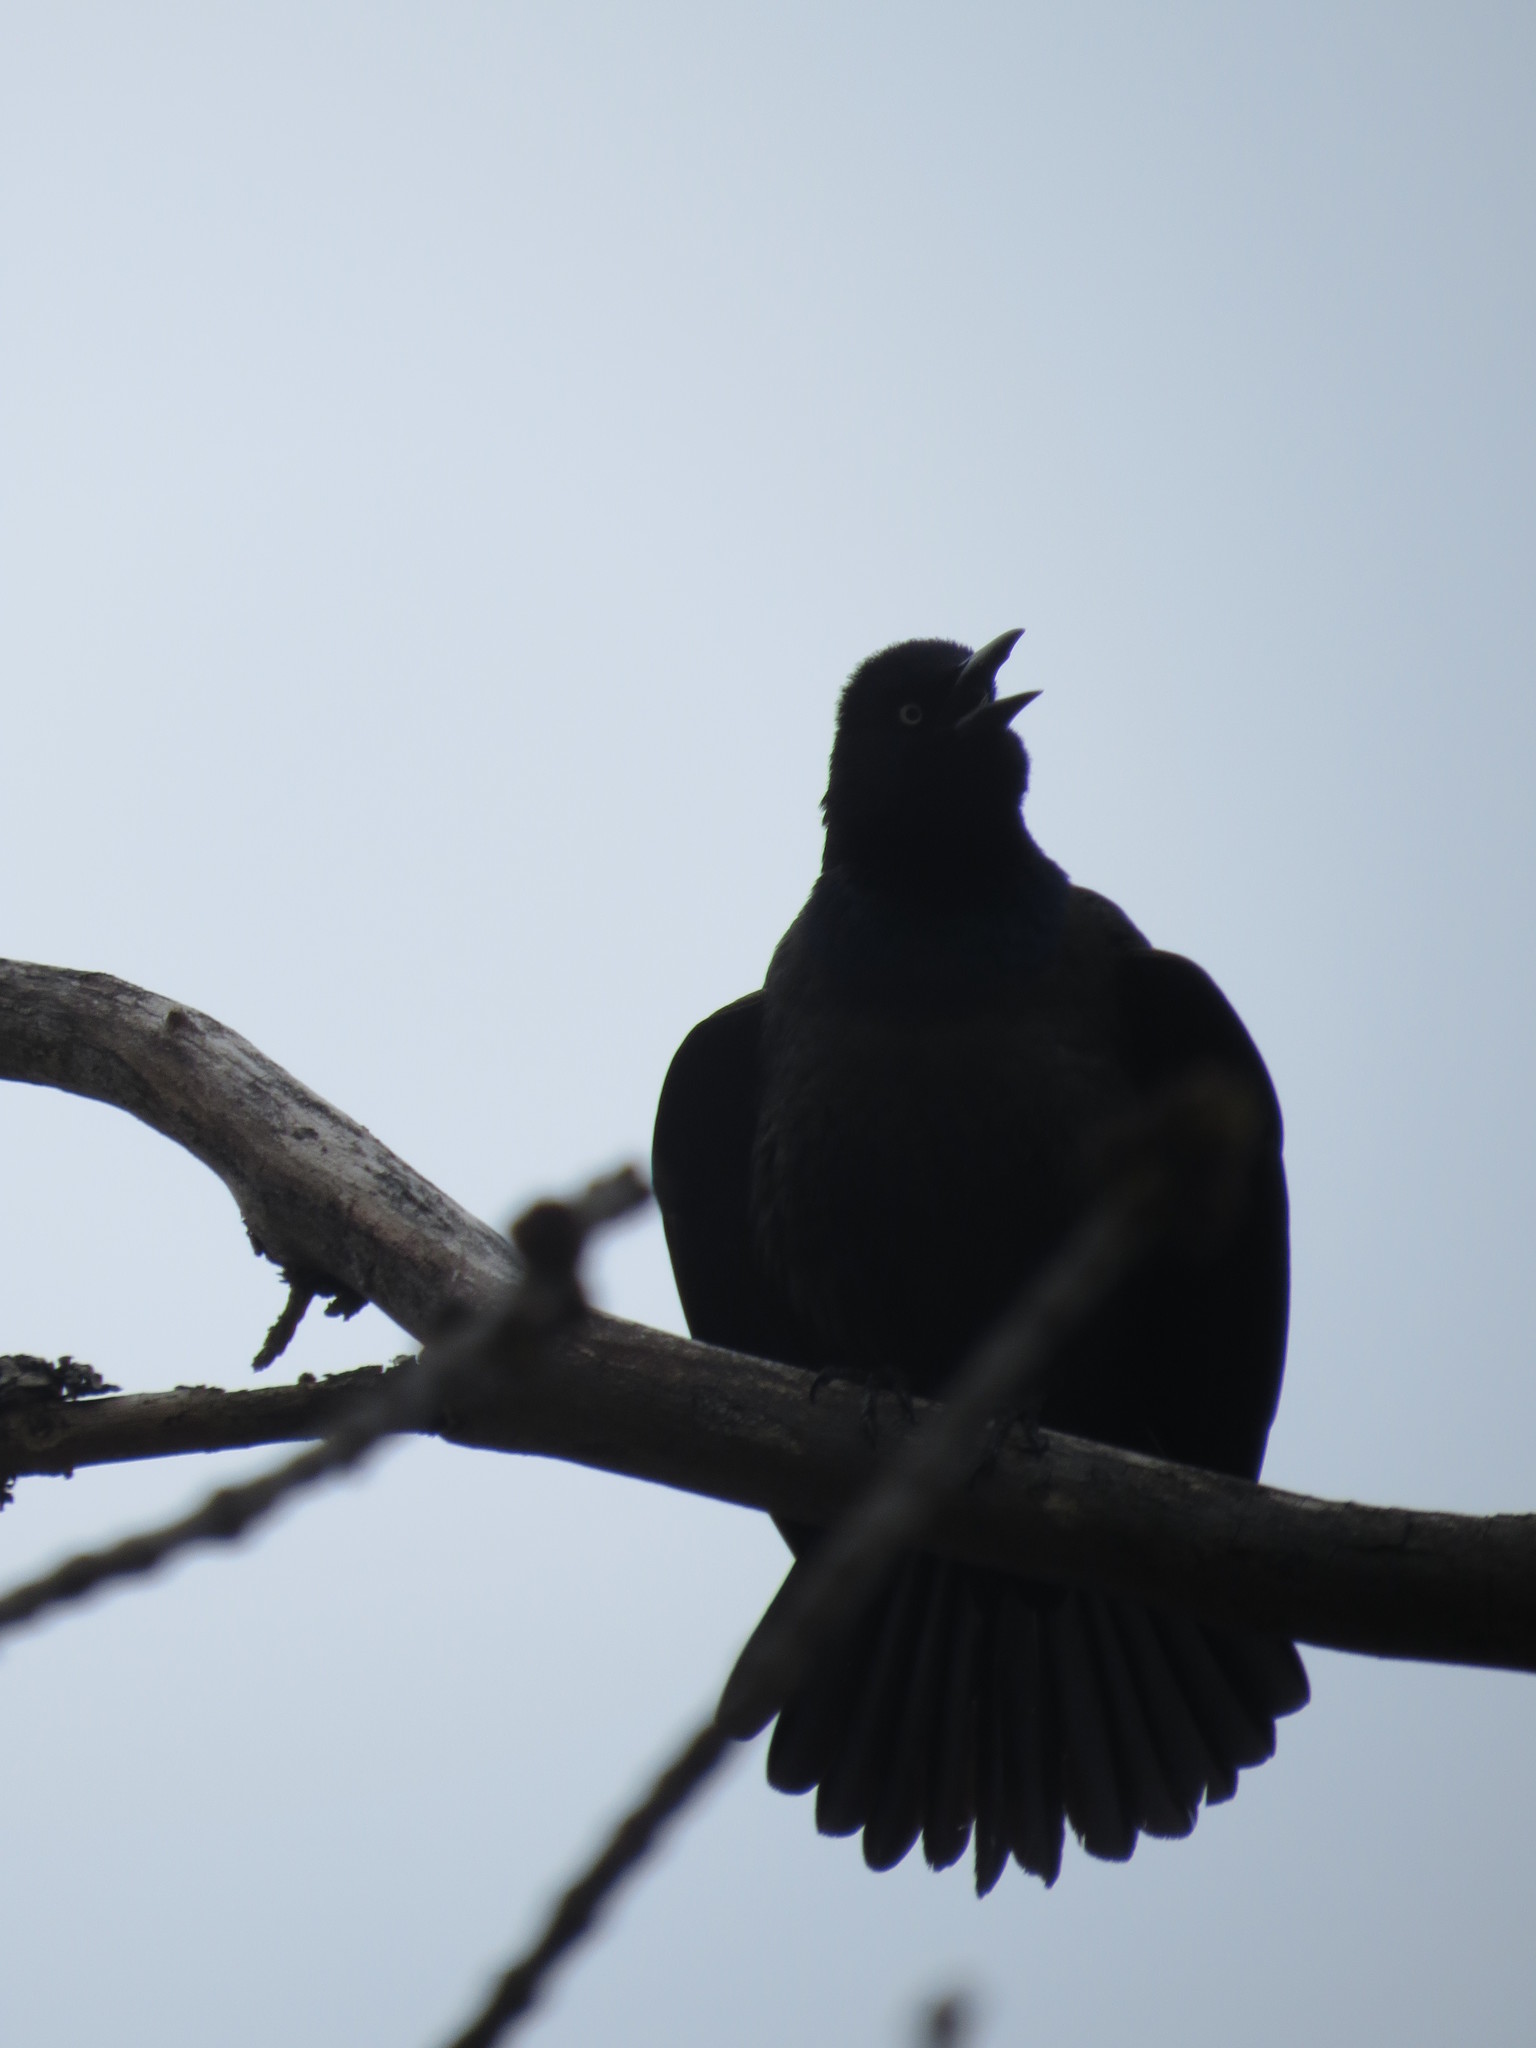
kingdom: Animalia
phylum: Chordata
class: Aves
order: Passeriformes
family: Icteridae
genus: Quiscalus
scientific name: Quiscalus quiscula
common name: Common grackle
